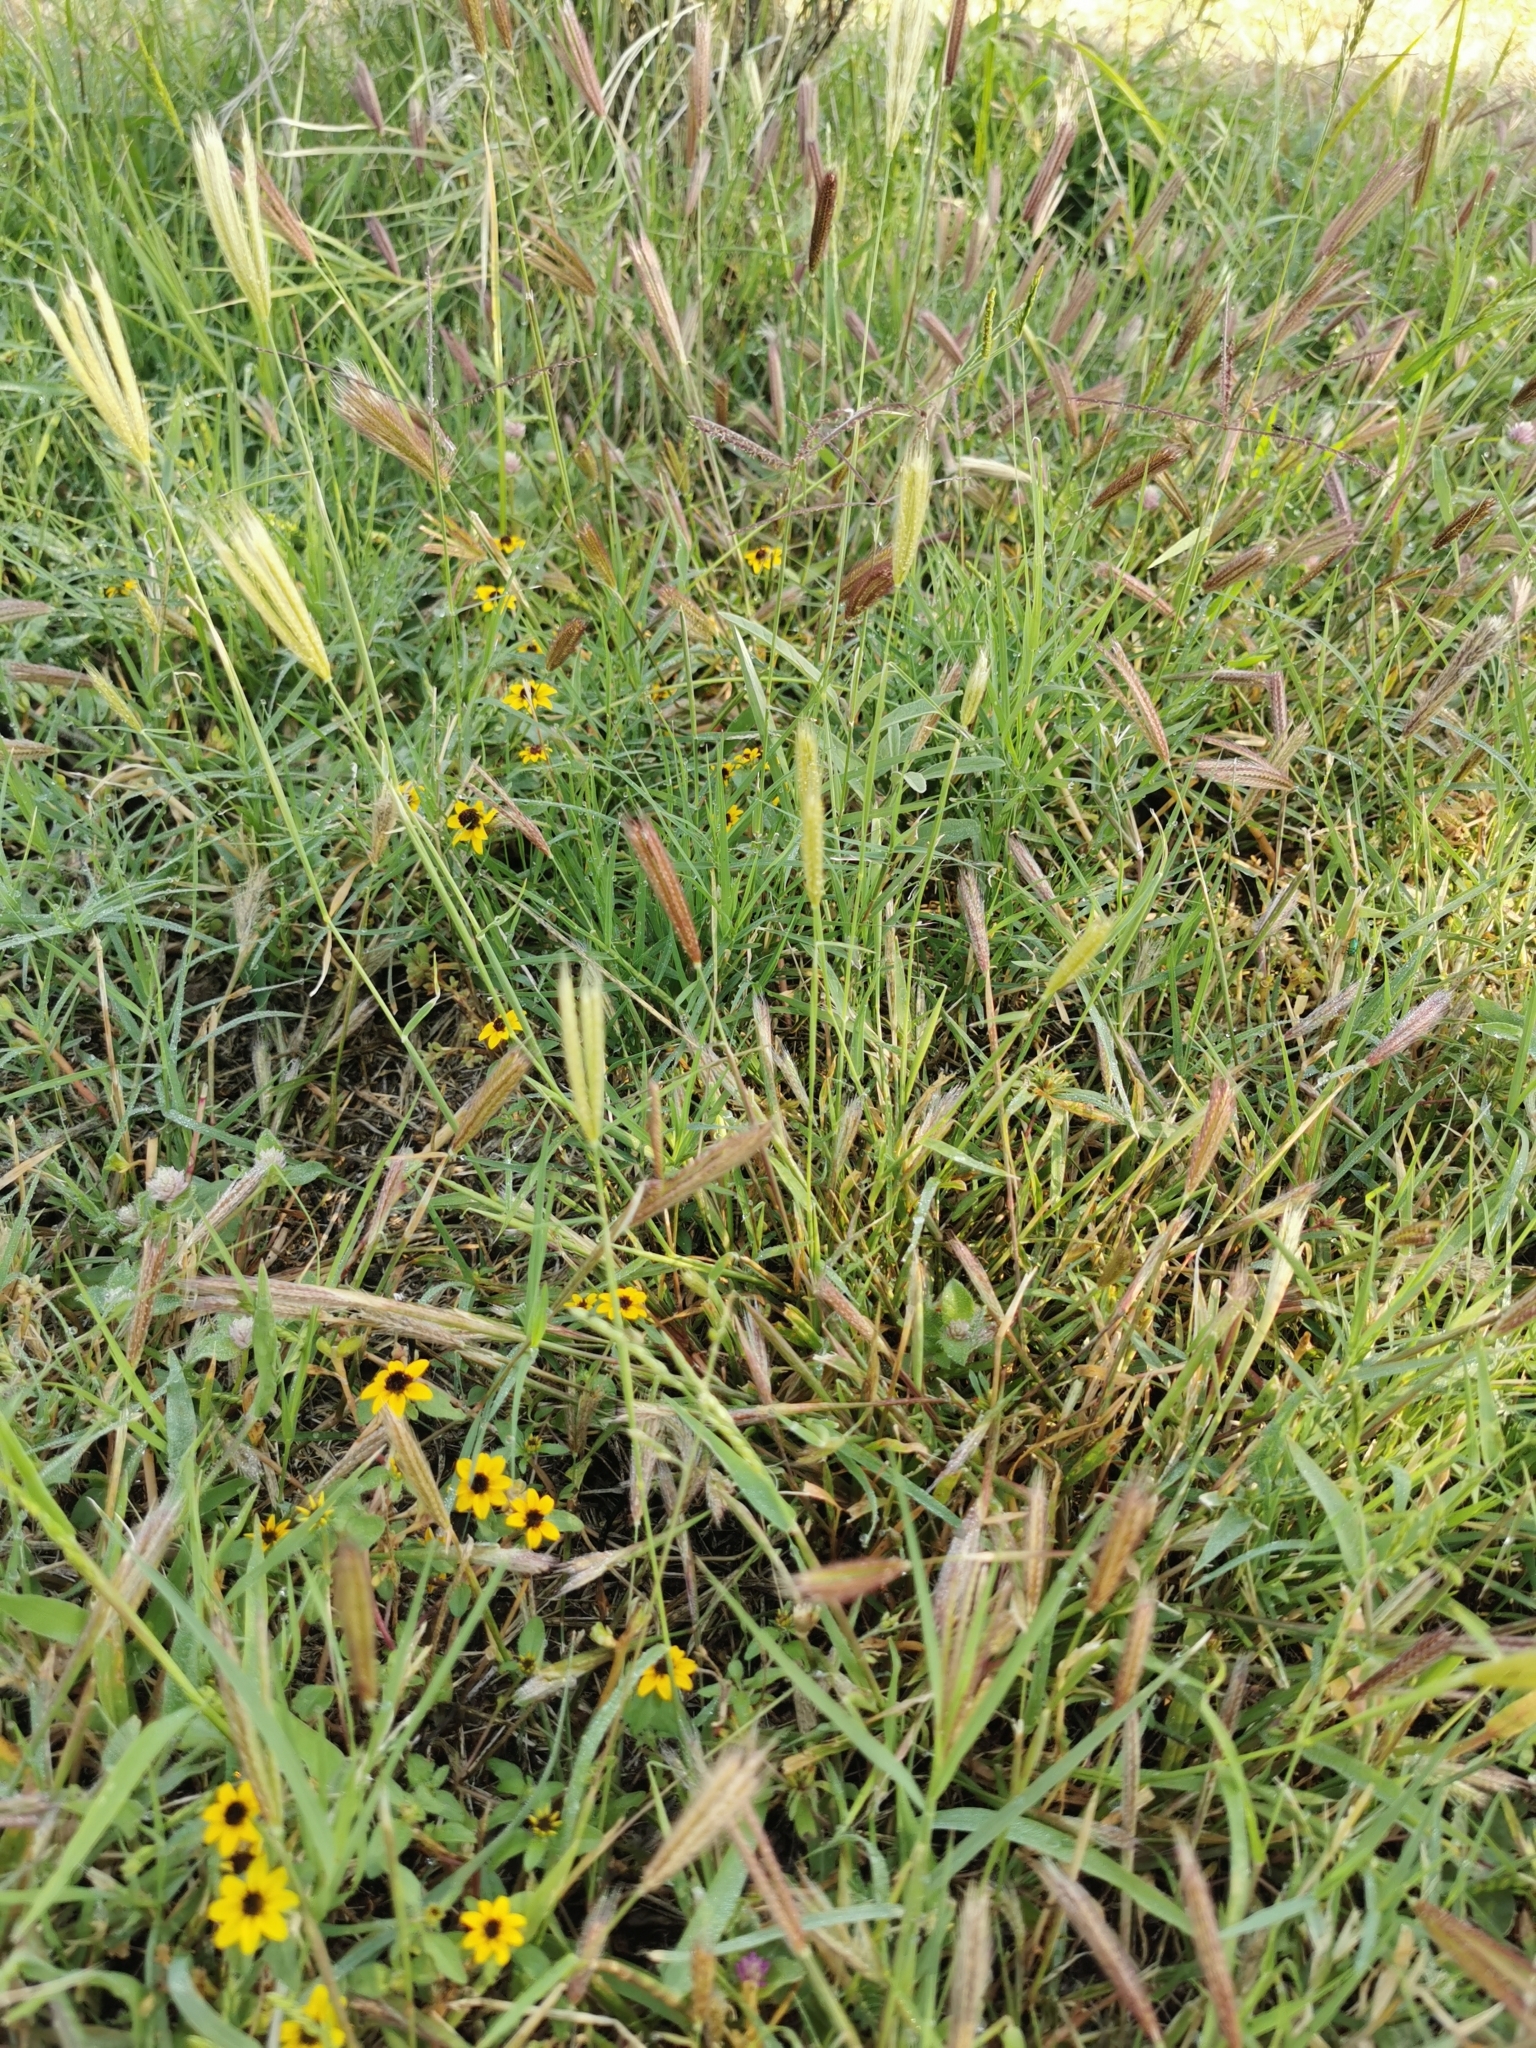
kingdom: Plantae
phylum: Tracheophyta
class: Liliopsida
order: Poales
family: Poaceae
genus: Chloris
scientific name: Chloris virgata
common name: Feathery rhodes-grass
